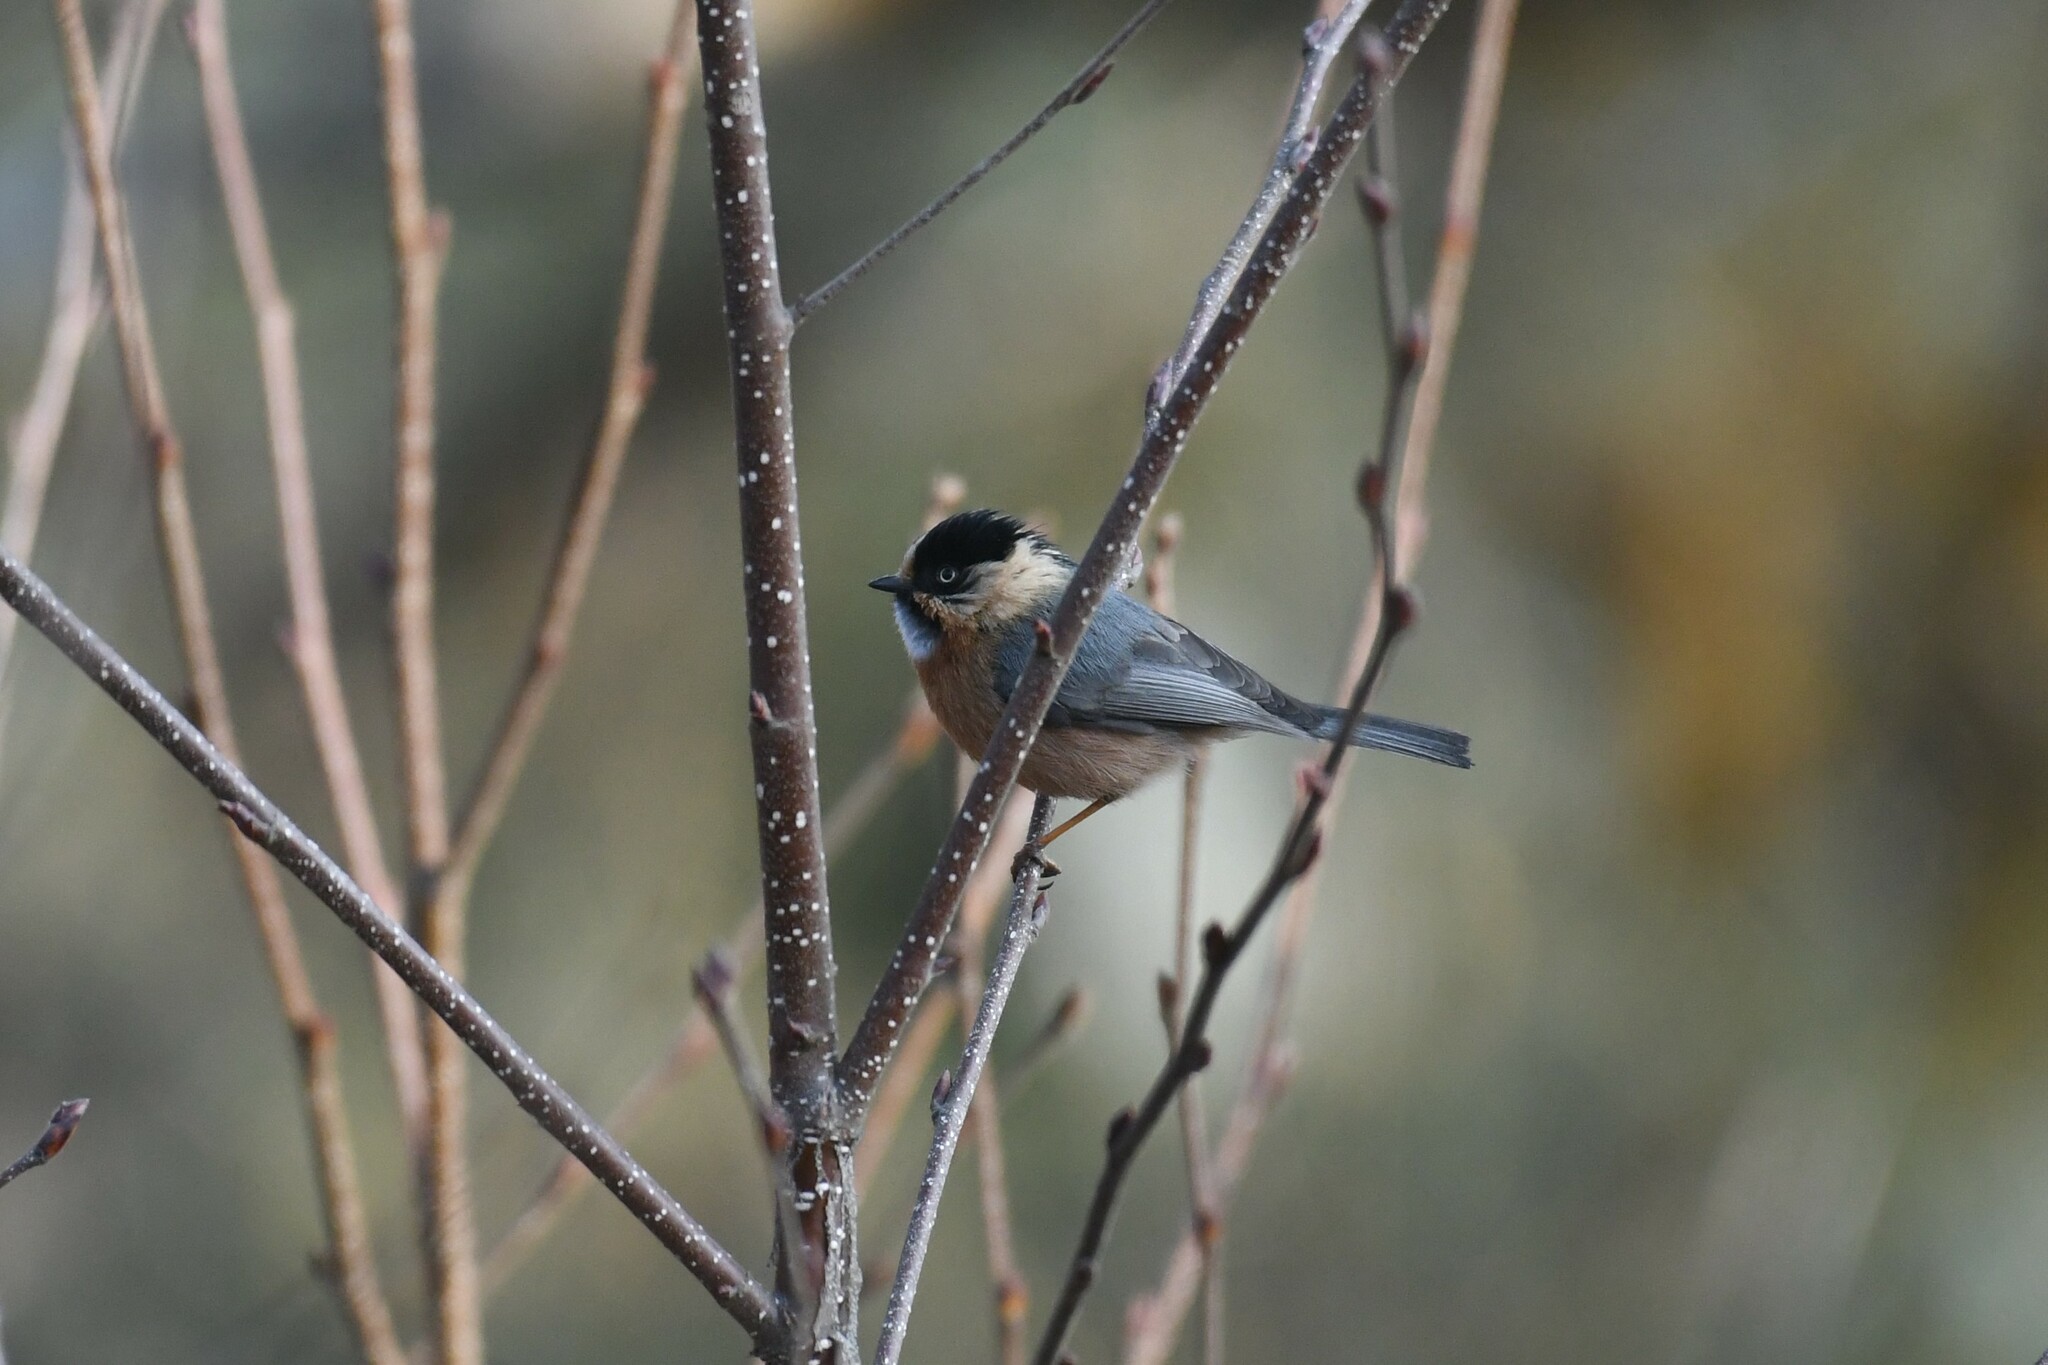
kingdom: Animalia
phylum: Chordata
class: Aves
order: Passeriformes
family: Aegithalidae
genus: Aegithalos
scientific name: Aegithalos iouschistos
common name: Rufous-fronted bushtit
